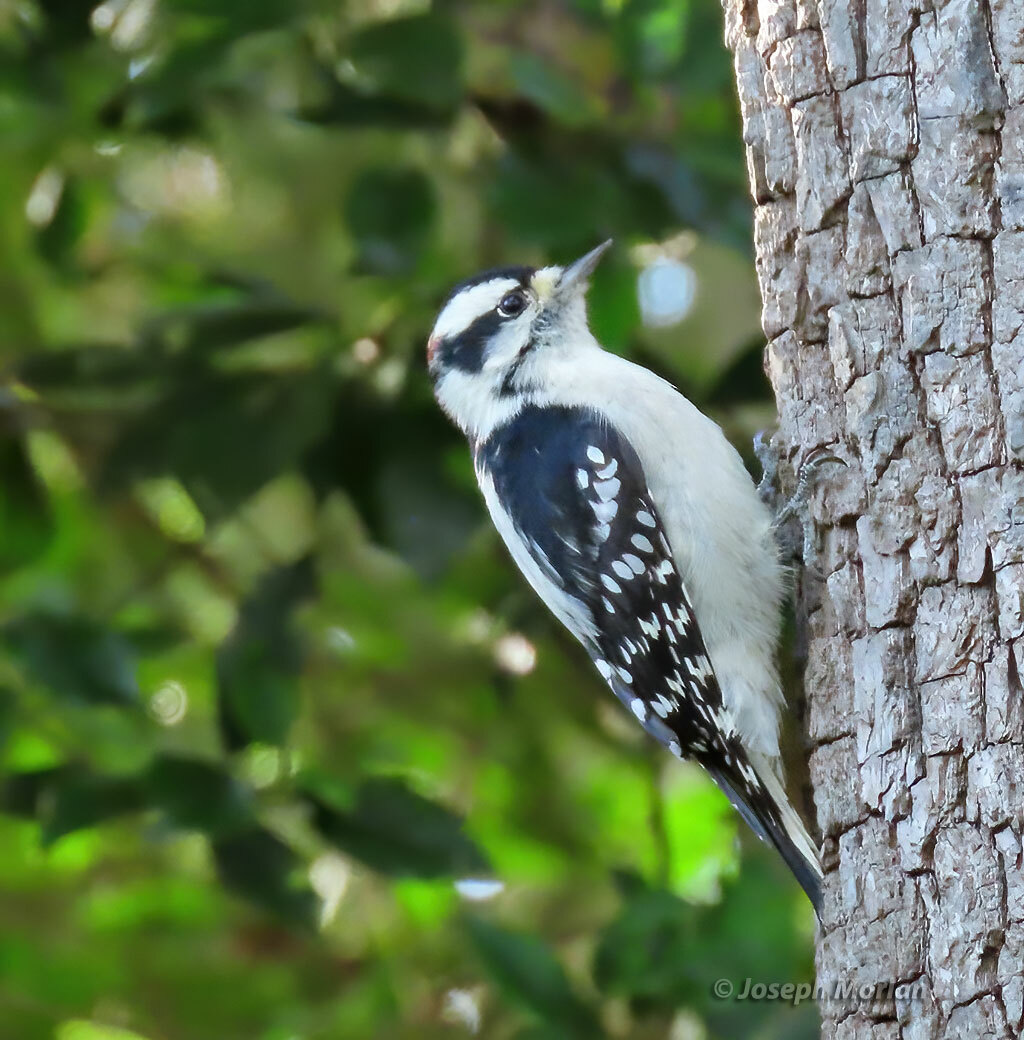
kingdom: Animalia
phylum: Chordata
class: Aves
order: Piciformes
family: Picidae
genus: Dryobates
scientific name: Dryobates pubescens
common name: Downy woodpecker
